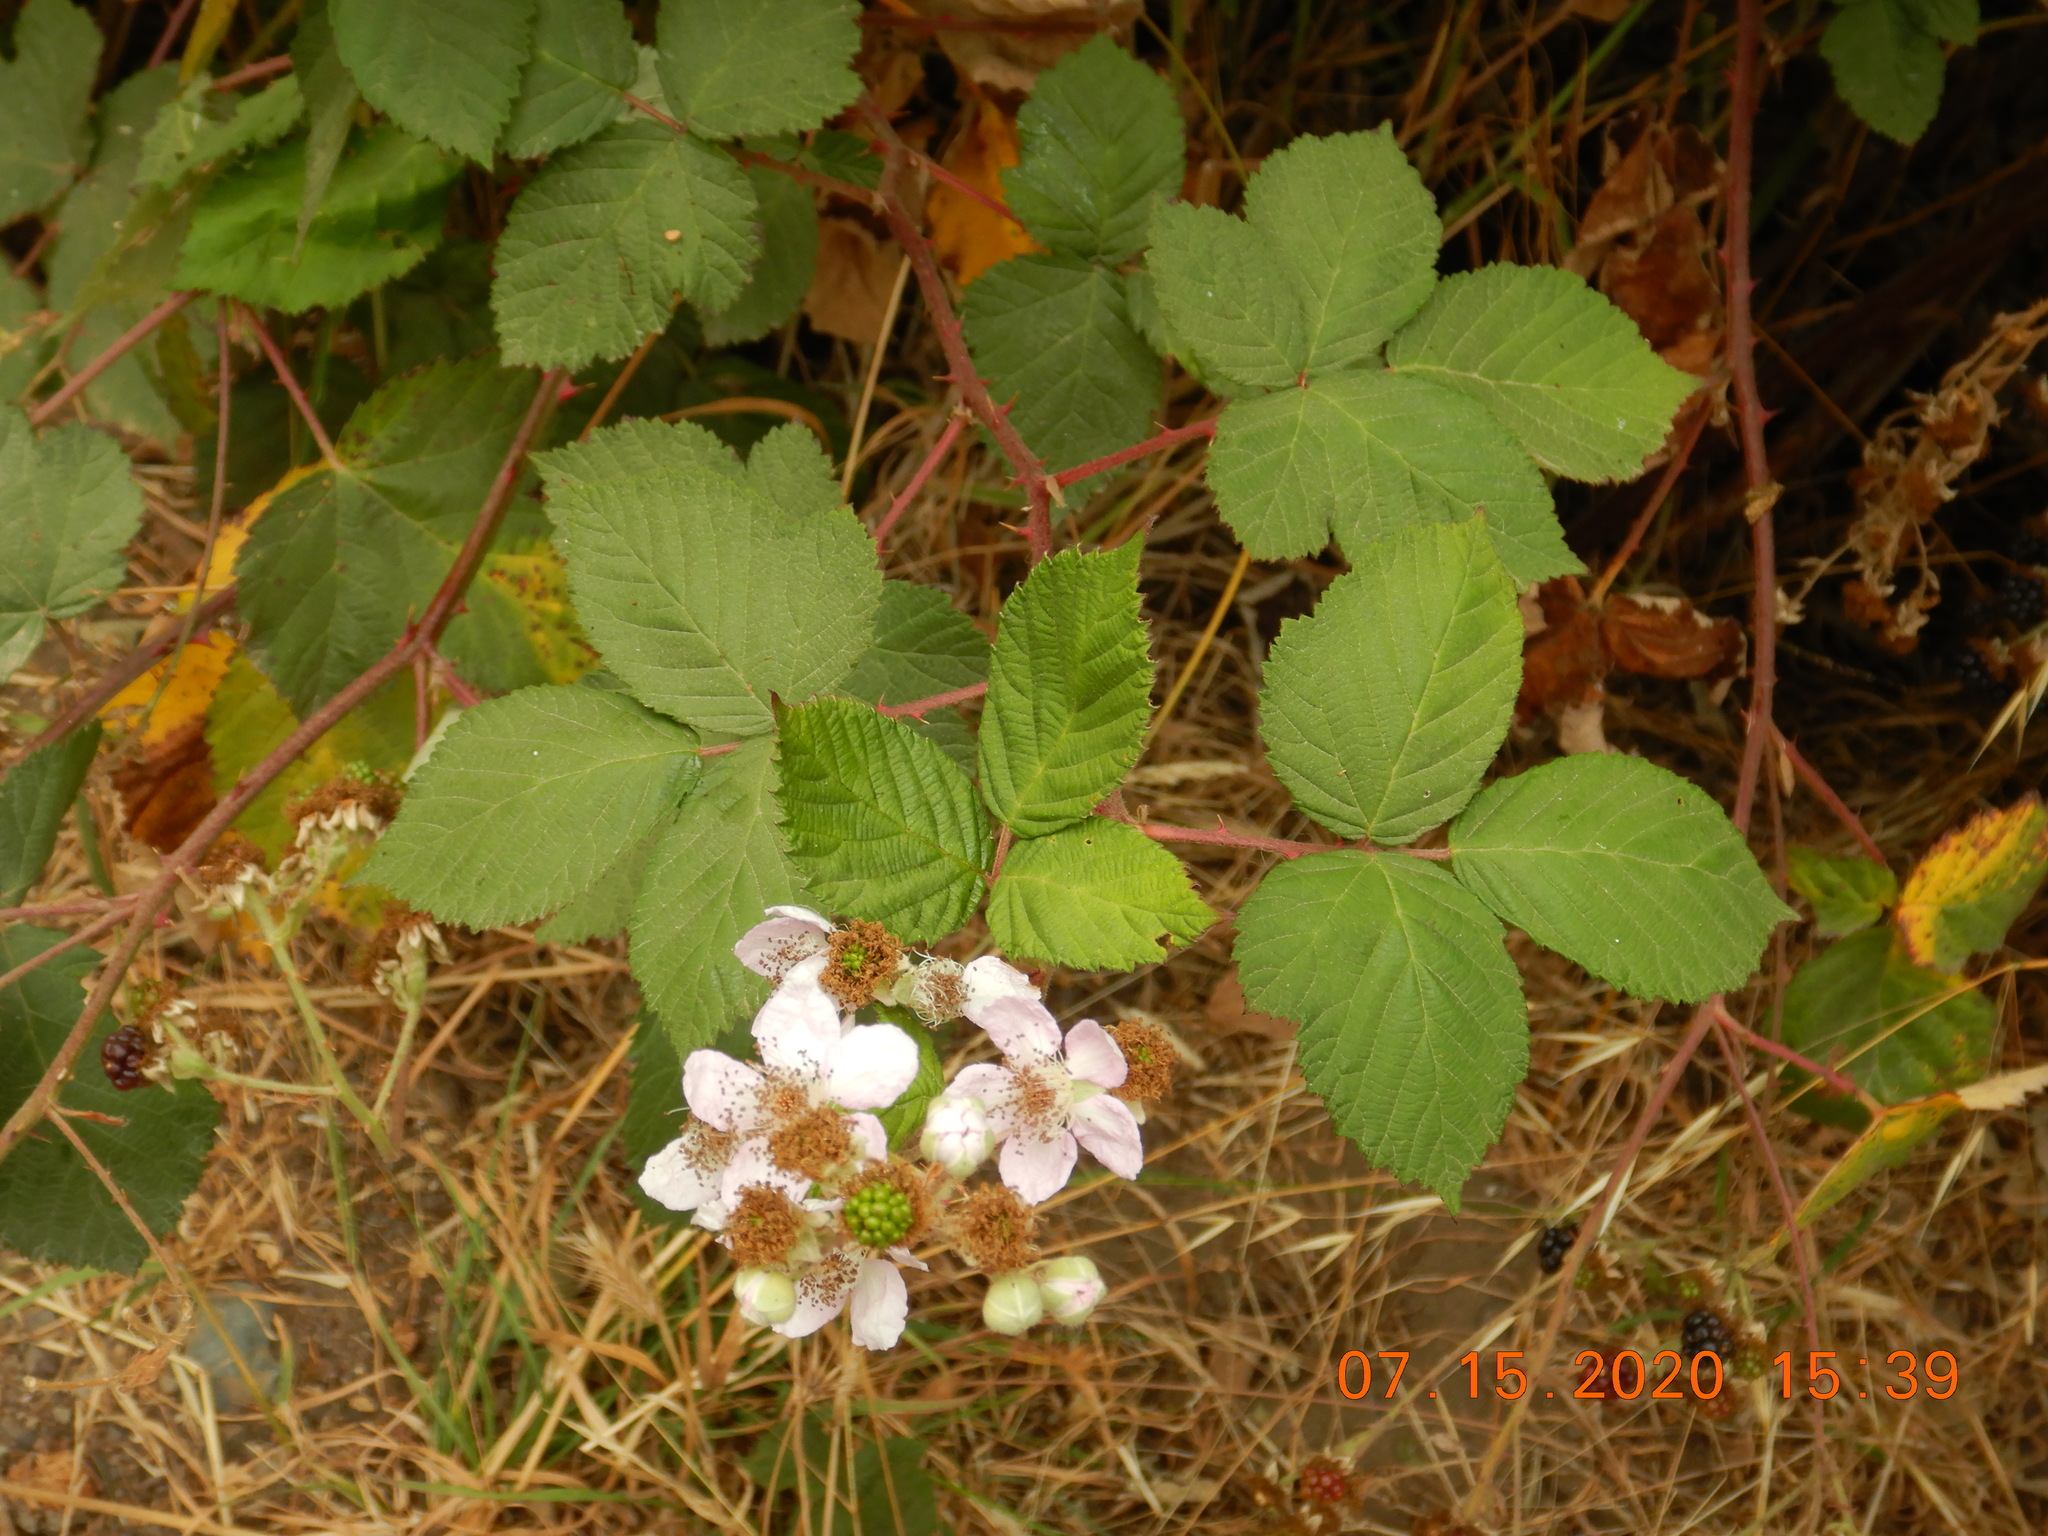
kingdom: Plantae
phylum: Tracheophyta
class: Magnoliopsida
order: Rosales
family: Rosaceae
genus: Rubus
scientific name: Rubus armeniacus
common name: Himalayan blackberry
